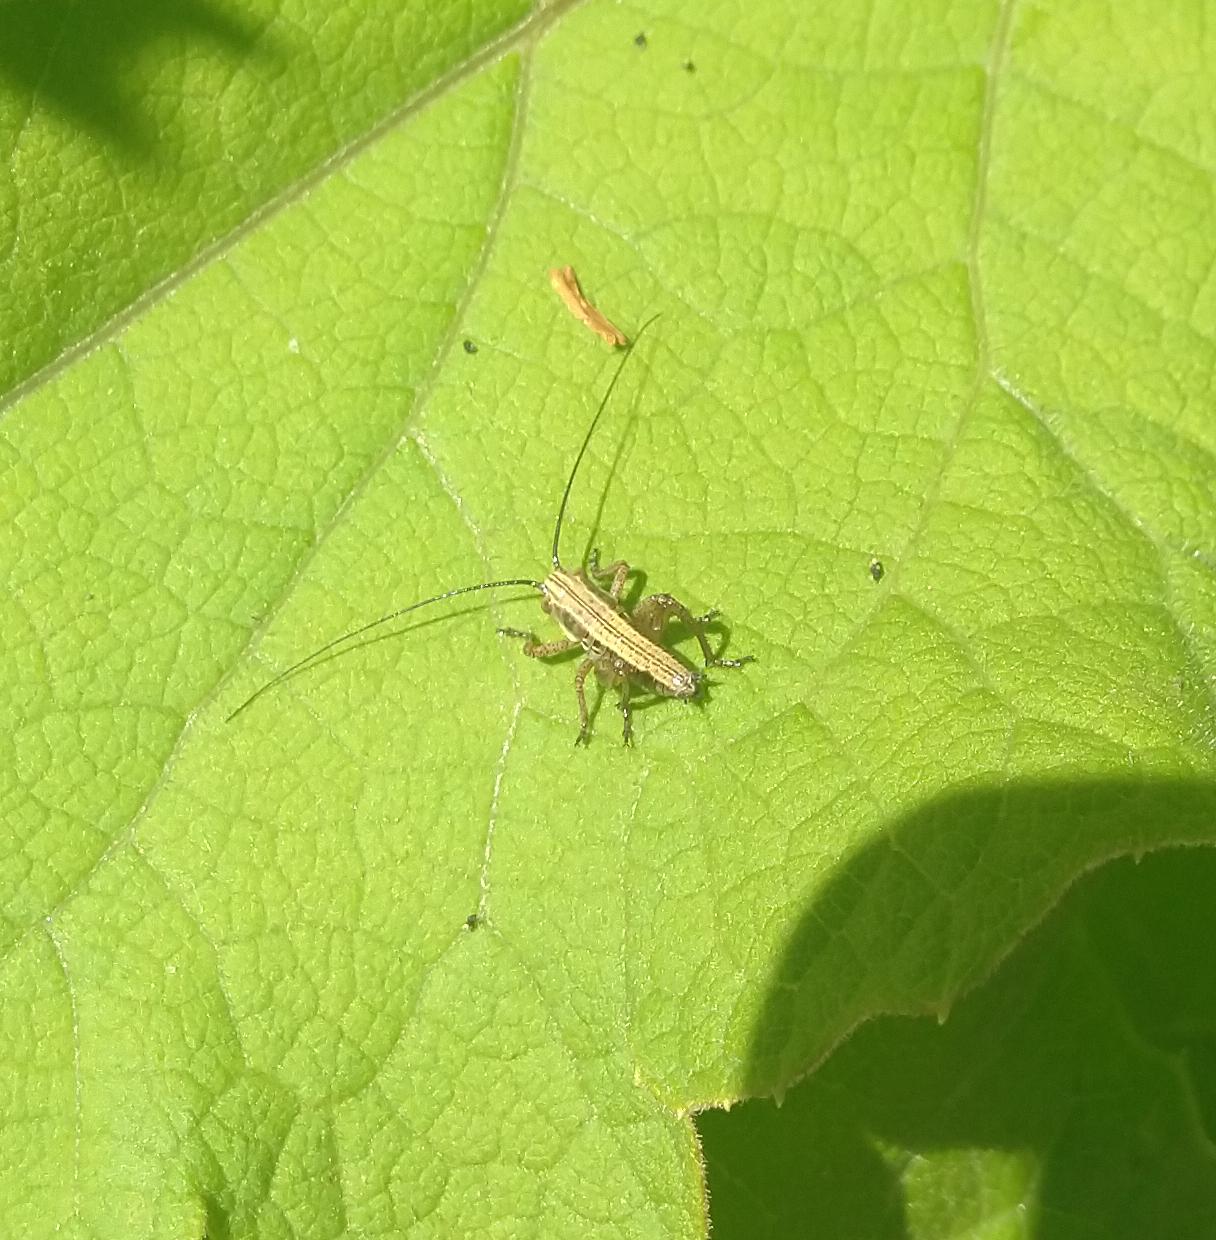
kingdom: Animalia
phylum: Arthropoda
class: Insecta
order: Orthoptera
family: Tettigoniidae
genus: Roeseliana
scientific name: Roeseliana roeselii
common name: Roesel's bush cricket
